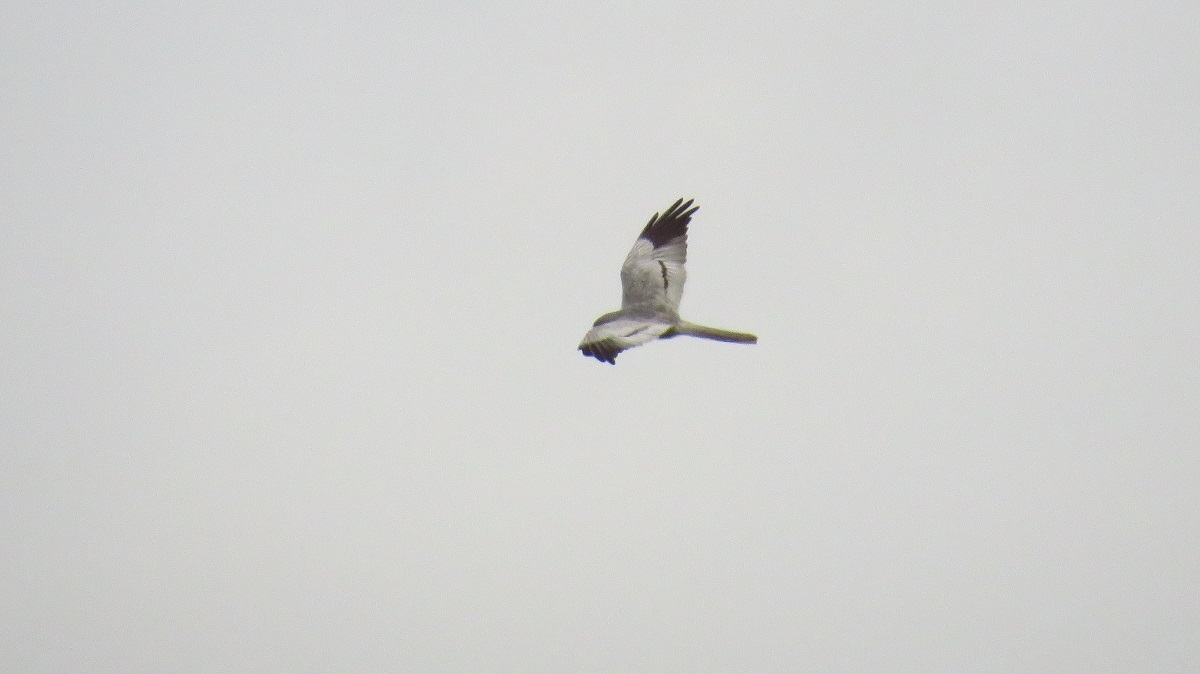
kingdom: Animalia
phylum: Chordata
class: Aves
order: Accipitriformes
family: Accipitridae
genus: Circus
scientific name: Circus pygargus
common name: Montagu's harrier
